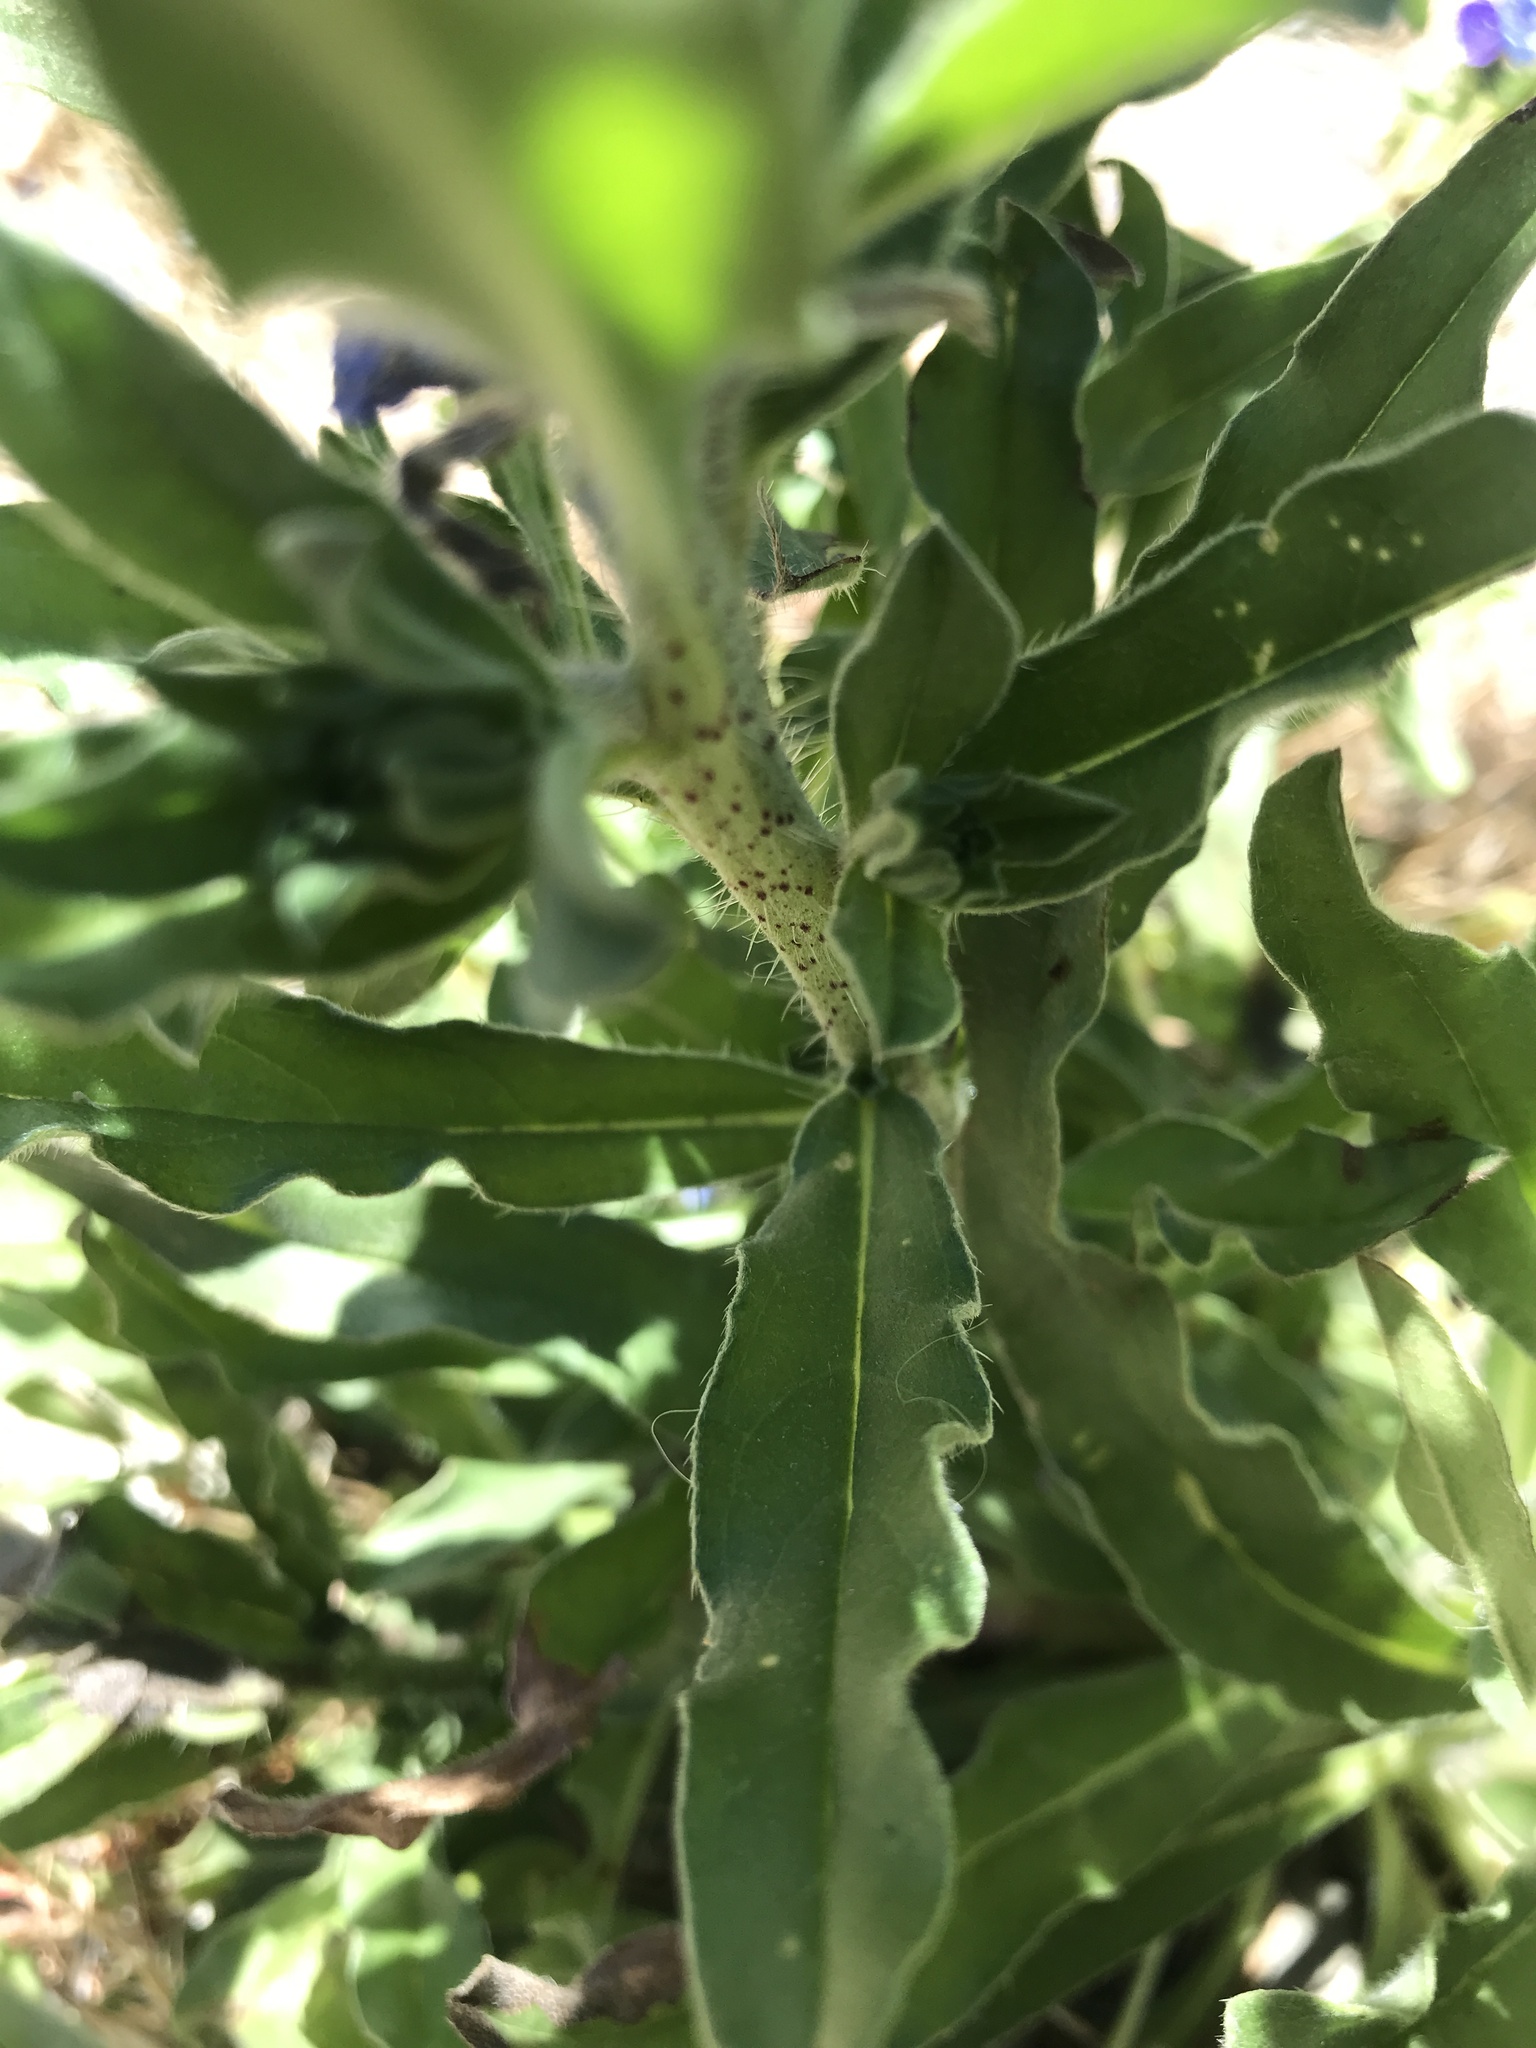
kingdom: Plantae
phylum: Tracheophyta
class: Magnoliopsida
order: Boraginales
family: Boraginaceae
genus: Echium
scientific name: Echium vulgare
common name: Common viper's bugloss
